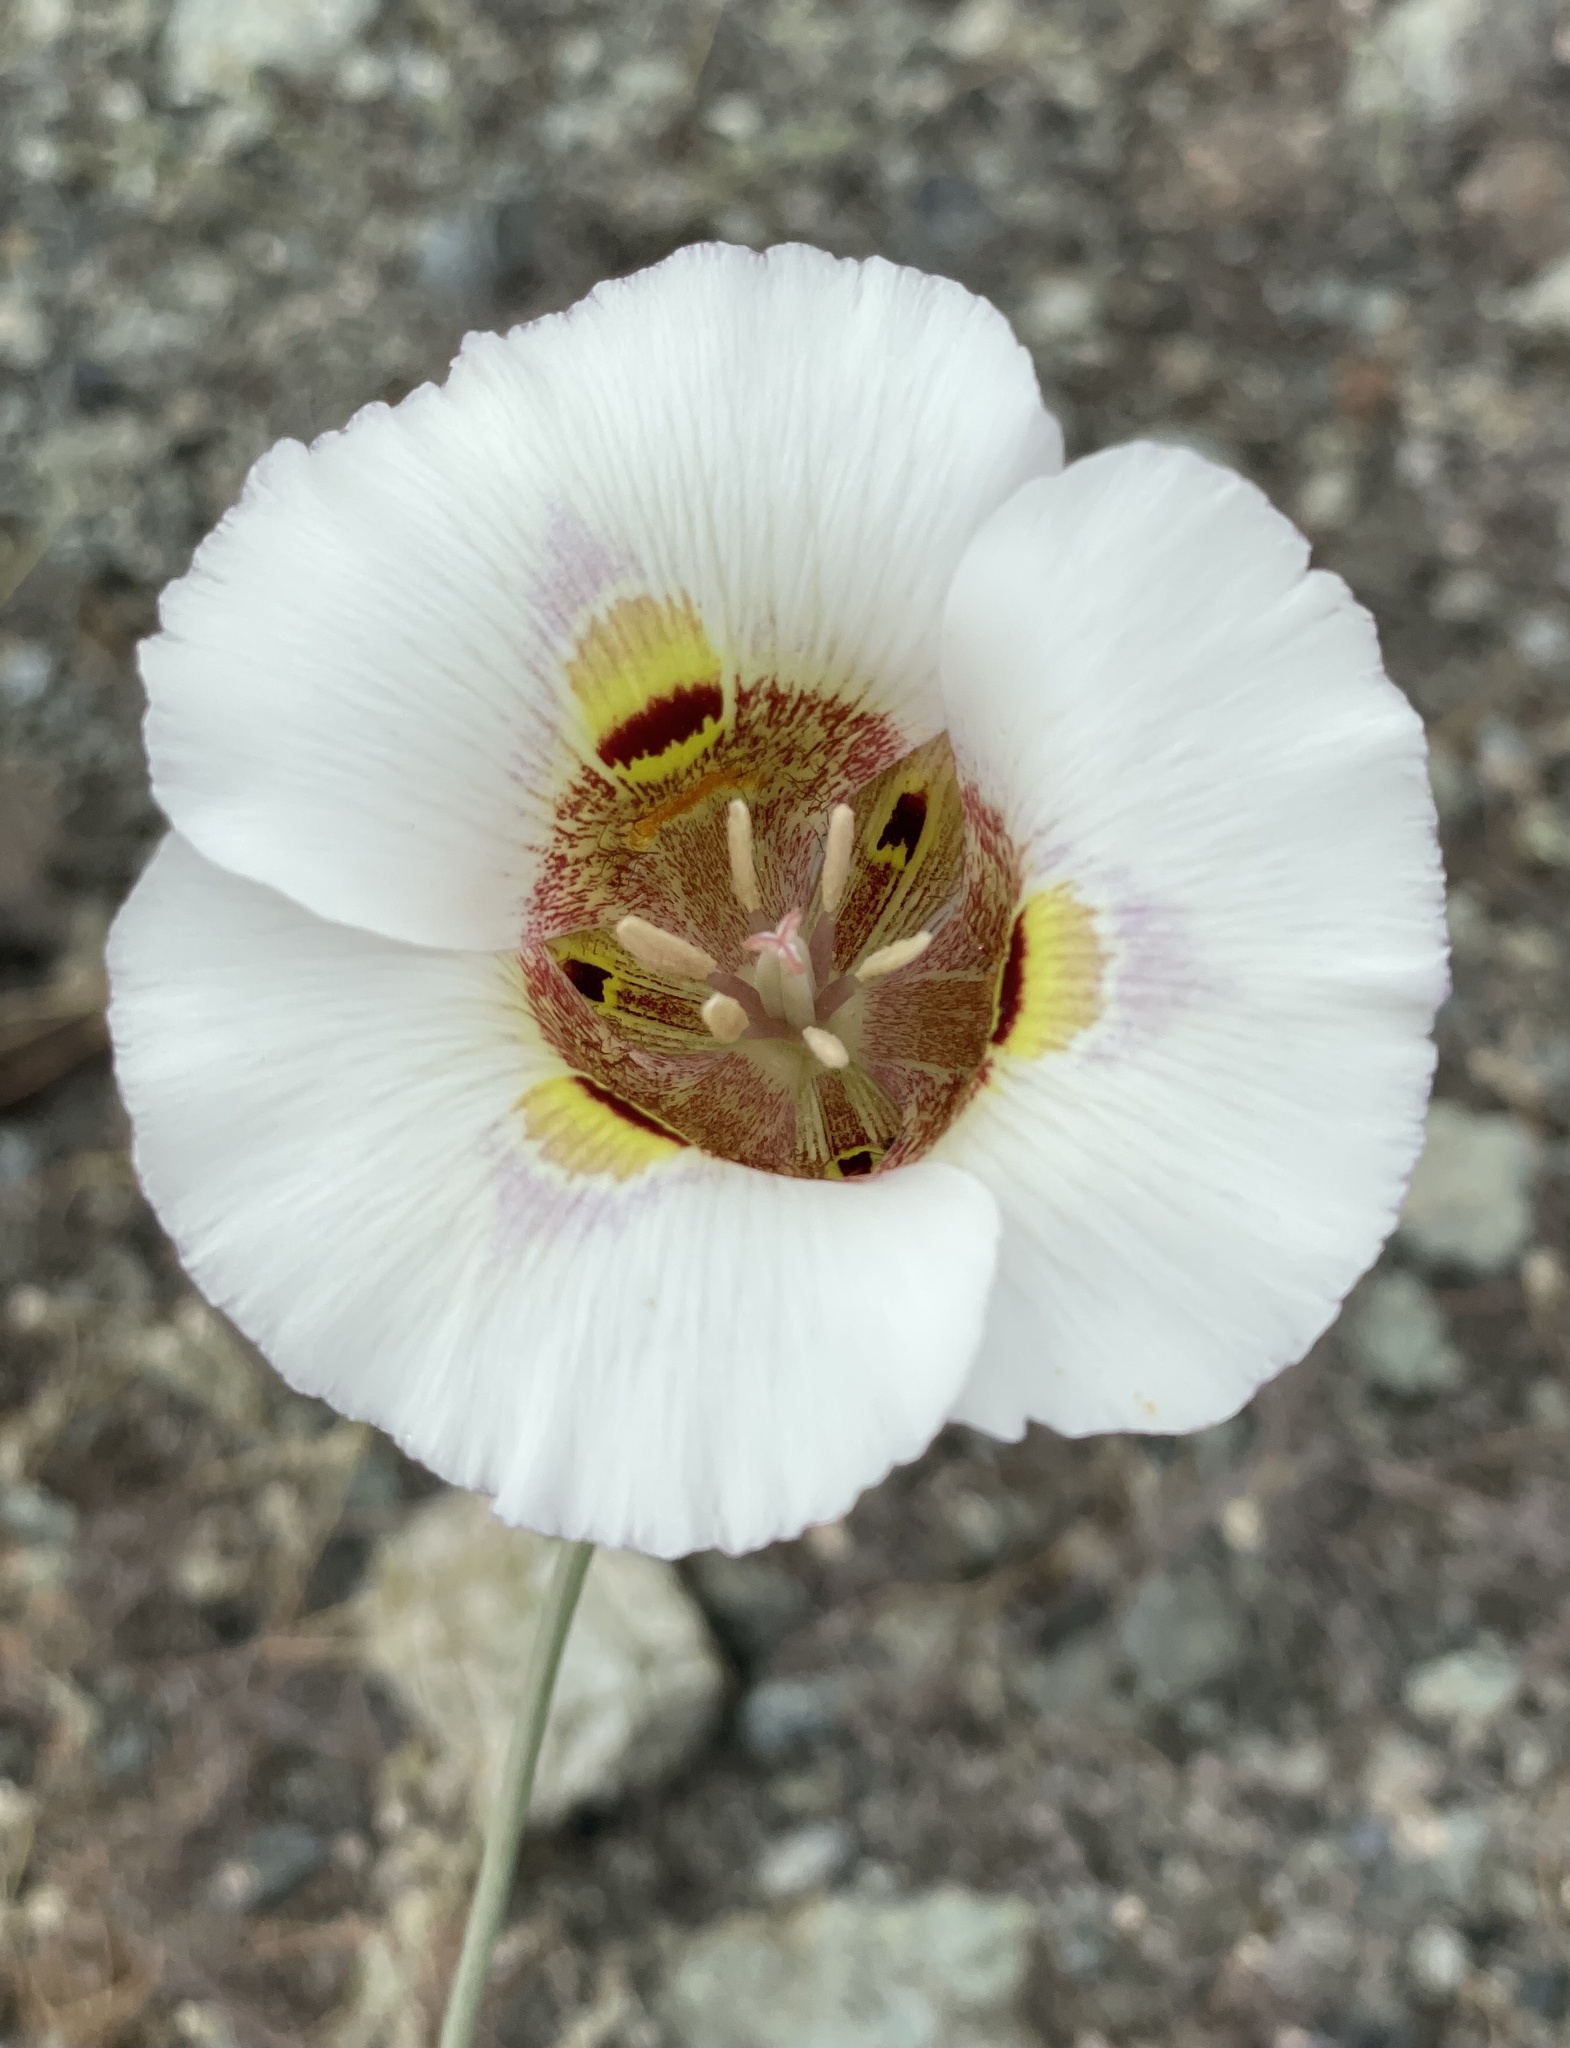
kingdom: Plantae
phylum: Tracheophyta
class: Liliopsida
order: Liliales
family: Liliaceae
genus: Calochortus
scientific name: Calochortus argillosus
